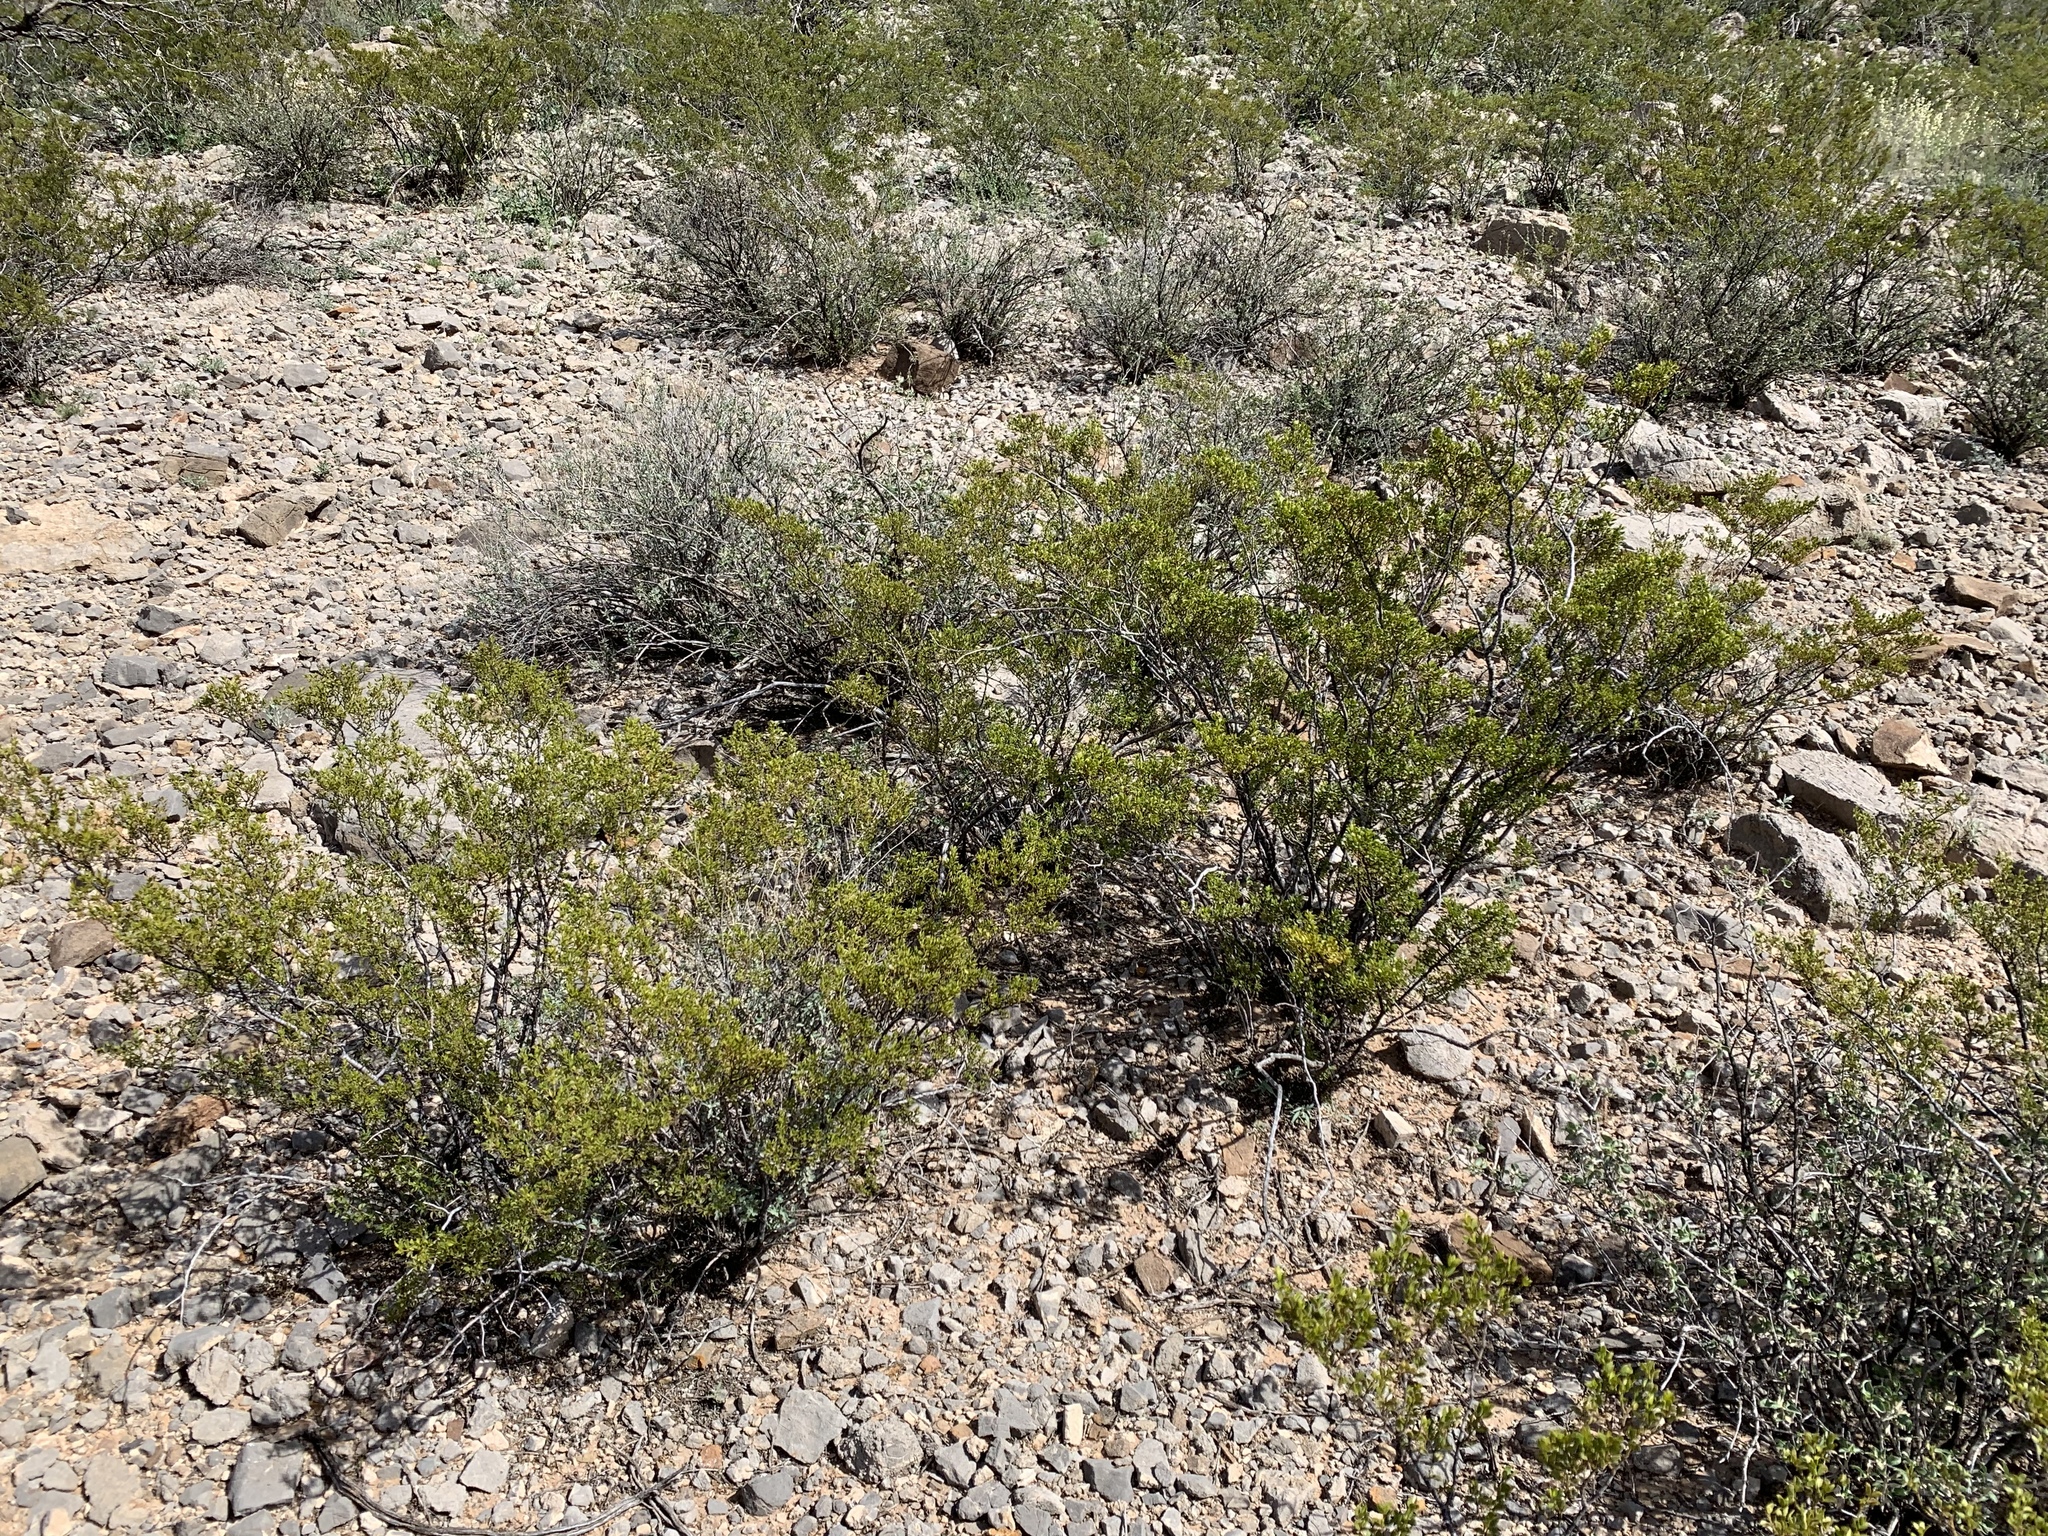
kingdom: Plantae
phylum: Tracheophyta
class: Magnoliopsida
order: Zygophyllales
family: Zygophyllaceae
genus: Larrea
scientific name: Larrea tridentata
